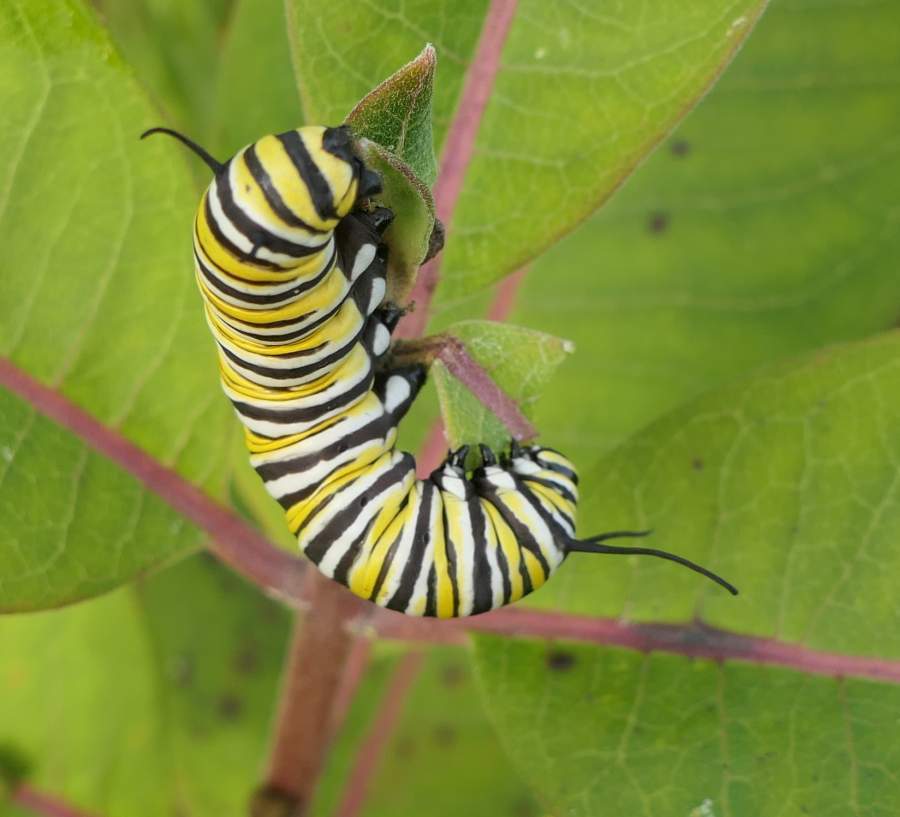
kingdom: Animalia
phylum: Arthropoda
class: Insecta
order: Lepidoptera
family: Nymphalidae
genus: Danaus
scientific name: Danaus plexippus
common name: Monarch
